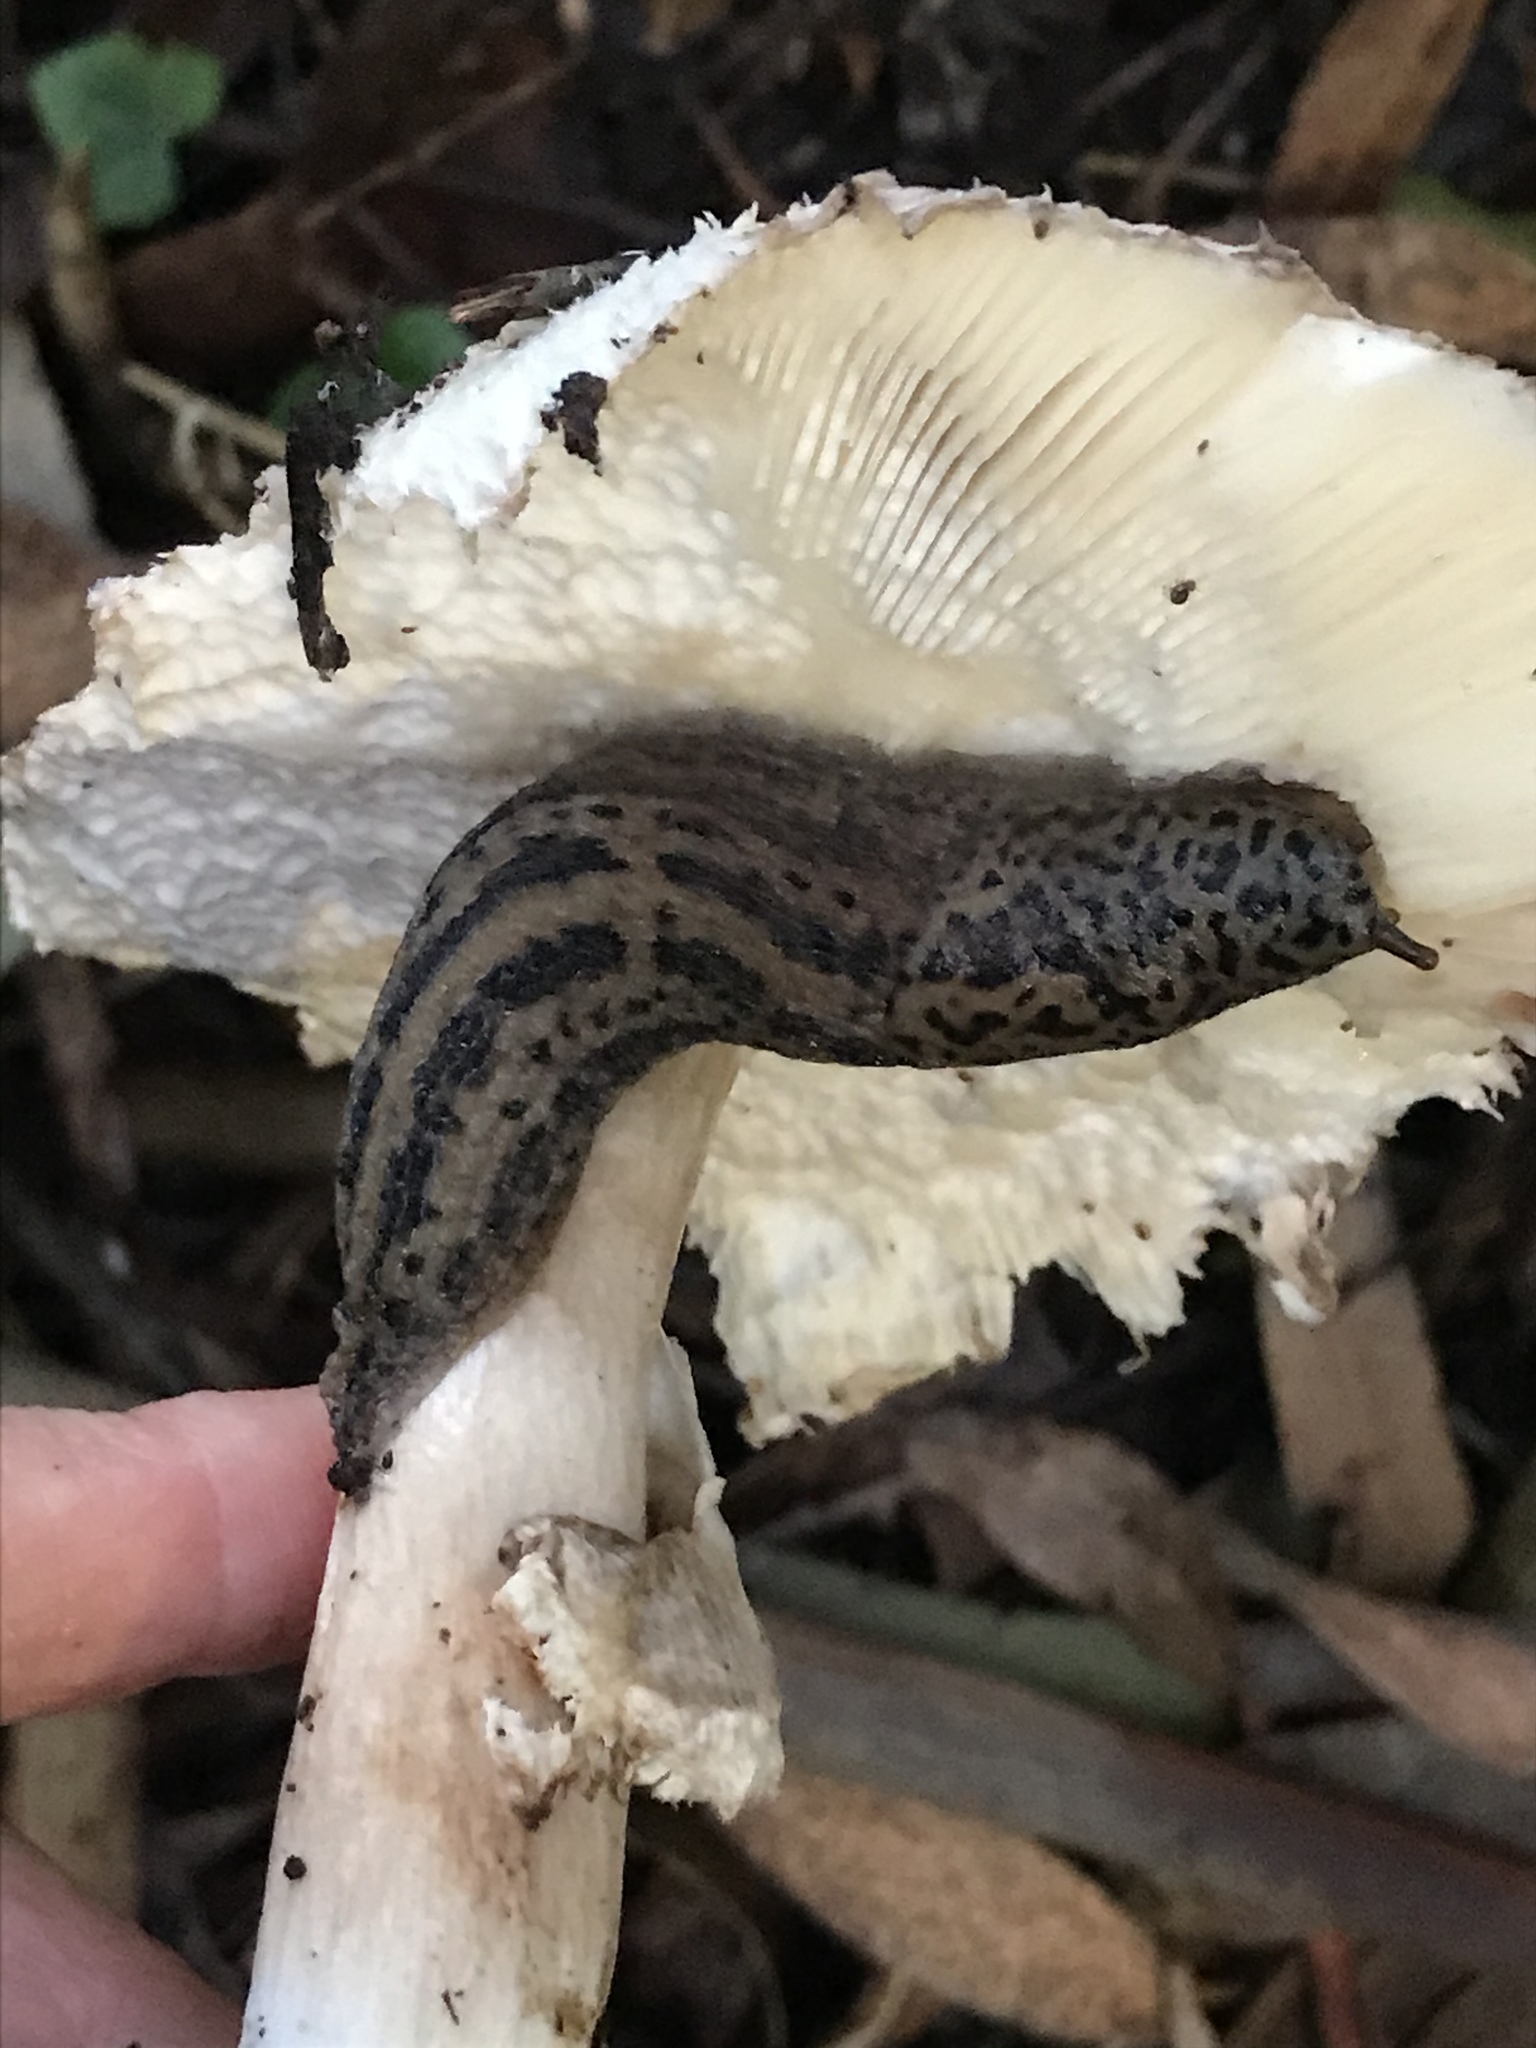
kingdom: Animalia
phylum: Mollusca
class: Gastropoda
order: Stylommatophora
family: Limacidae
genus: Limax
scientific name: Limax maximus
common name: Great grey slug
